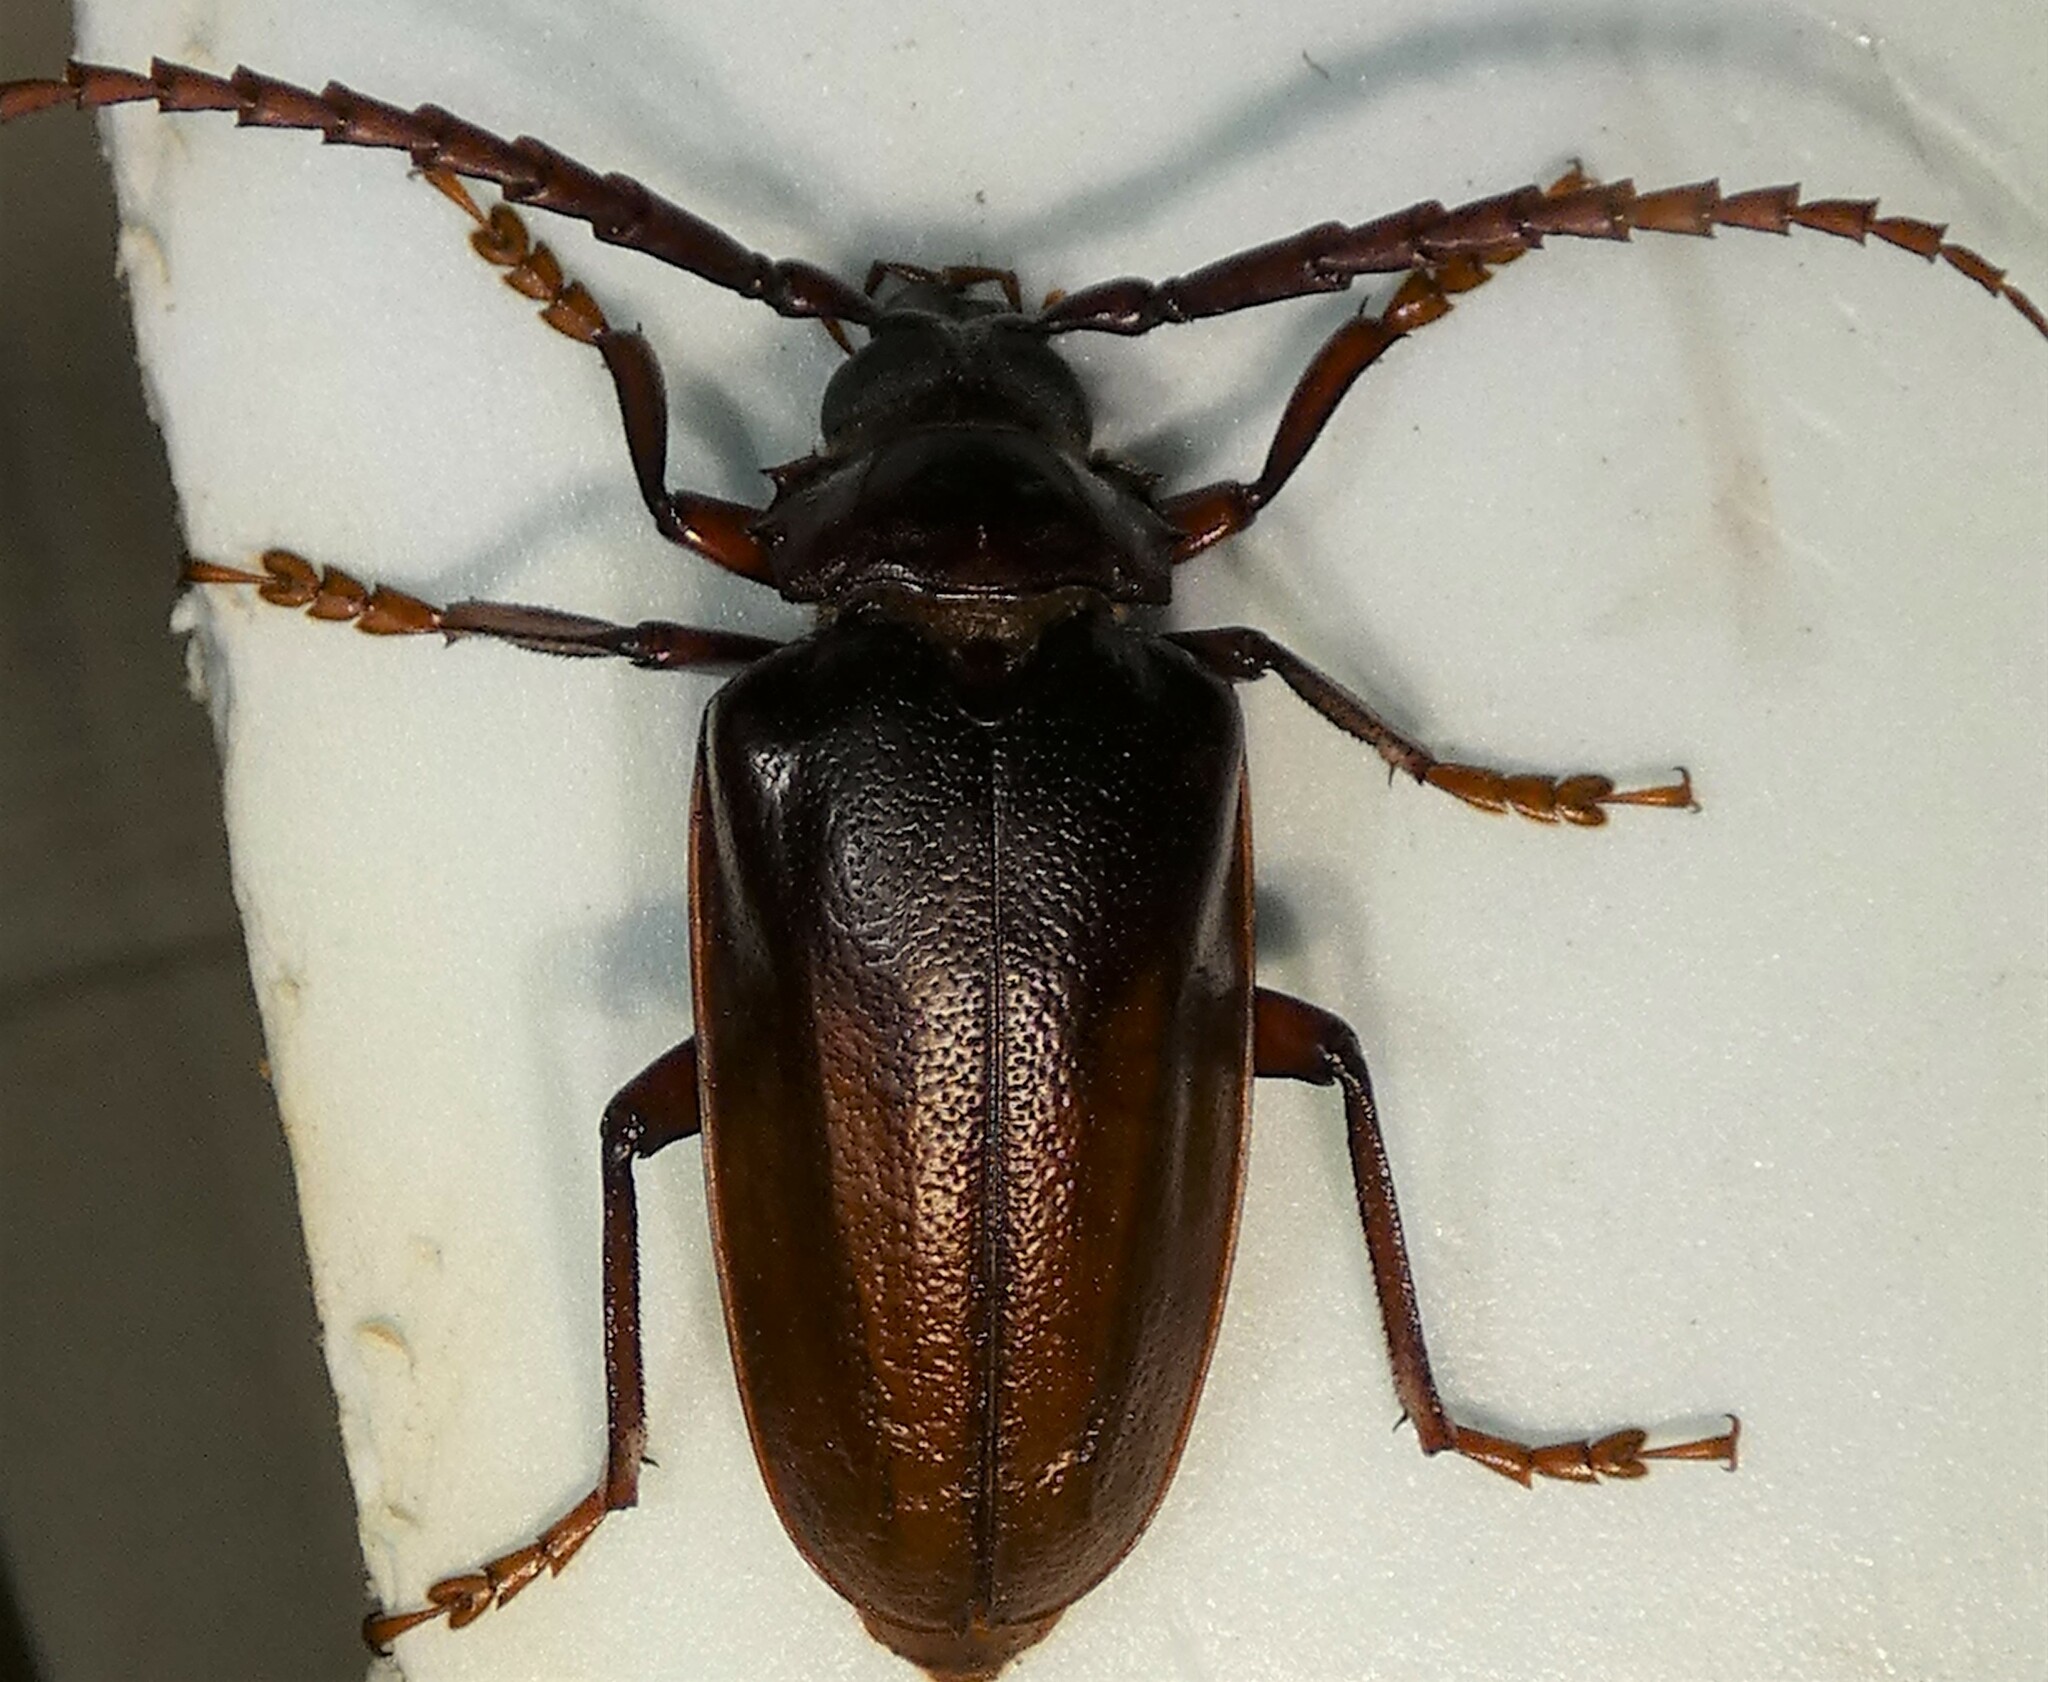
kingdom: Animalia
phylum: Arthropoda
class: Insecta
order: Coleoptera
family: Cerambycidae
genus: Prionus
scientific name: Prionus pocularis
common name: Tooth-necked longhorn beetle
